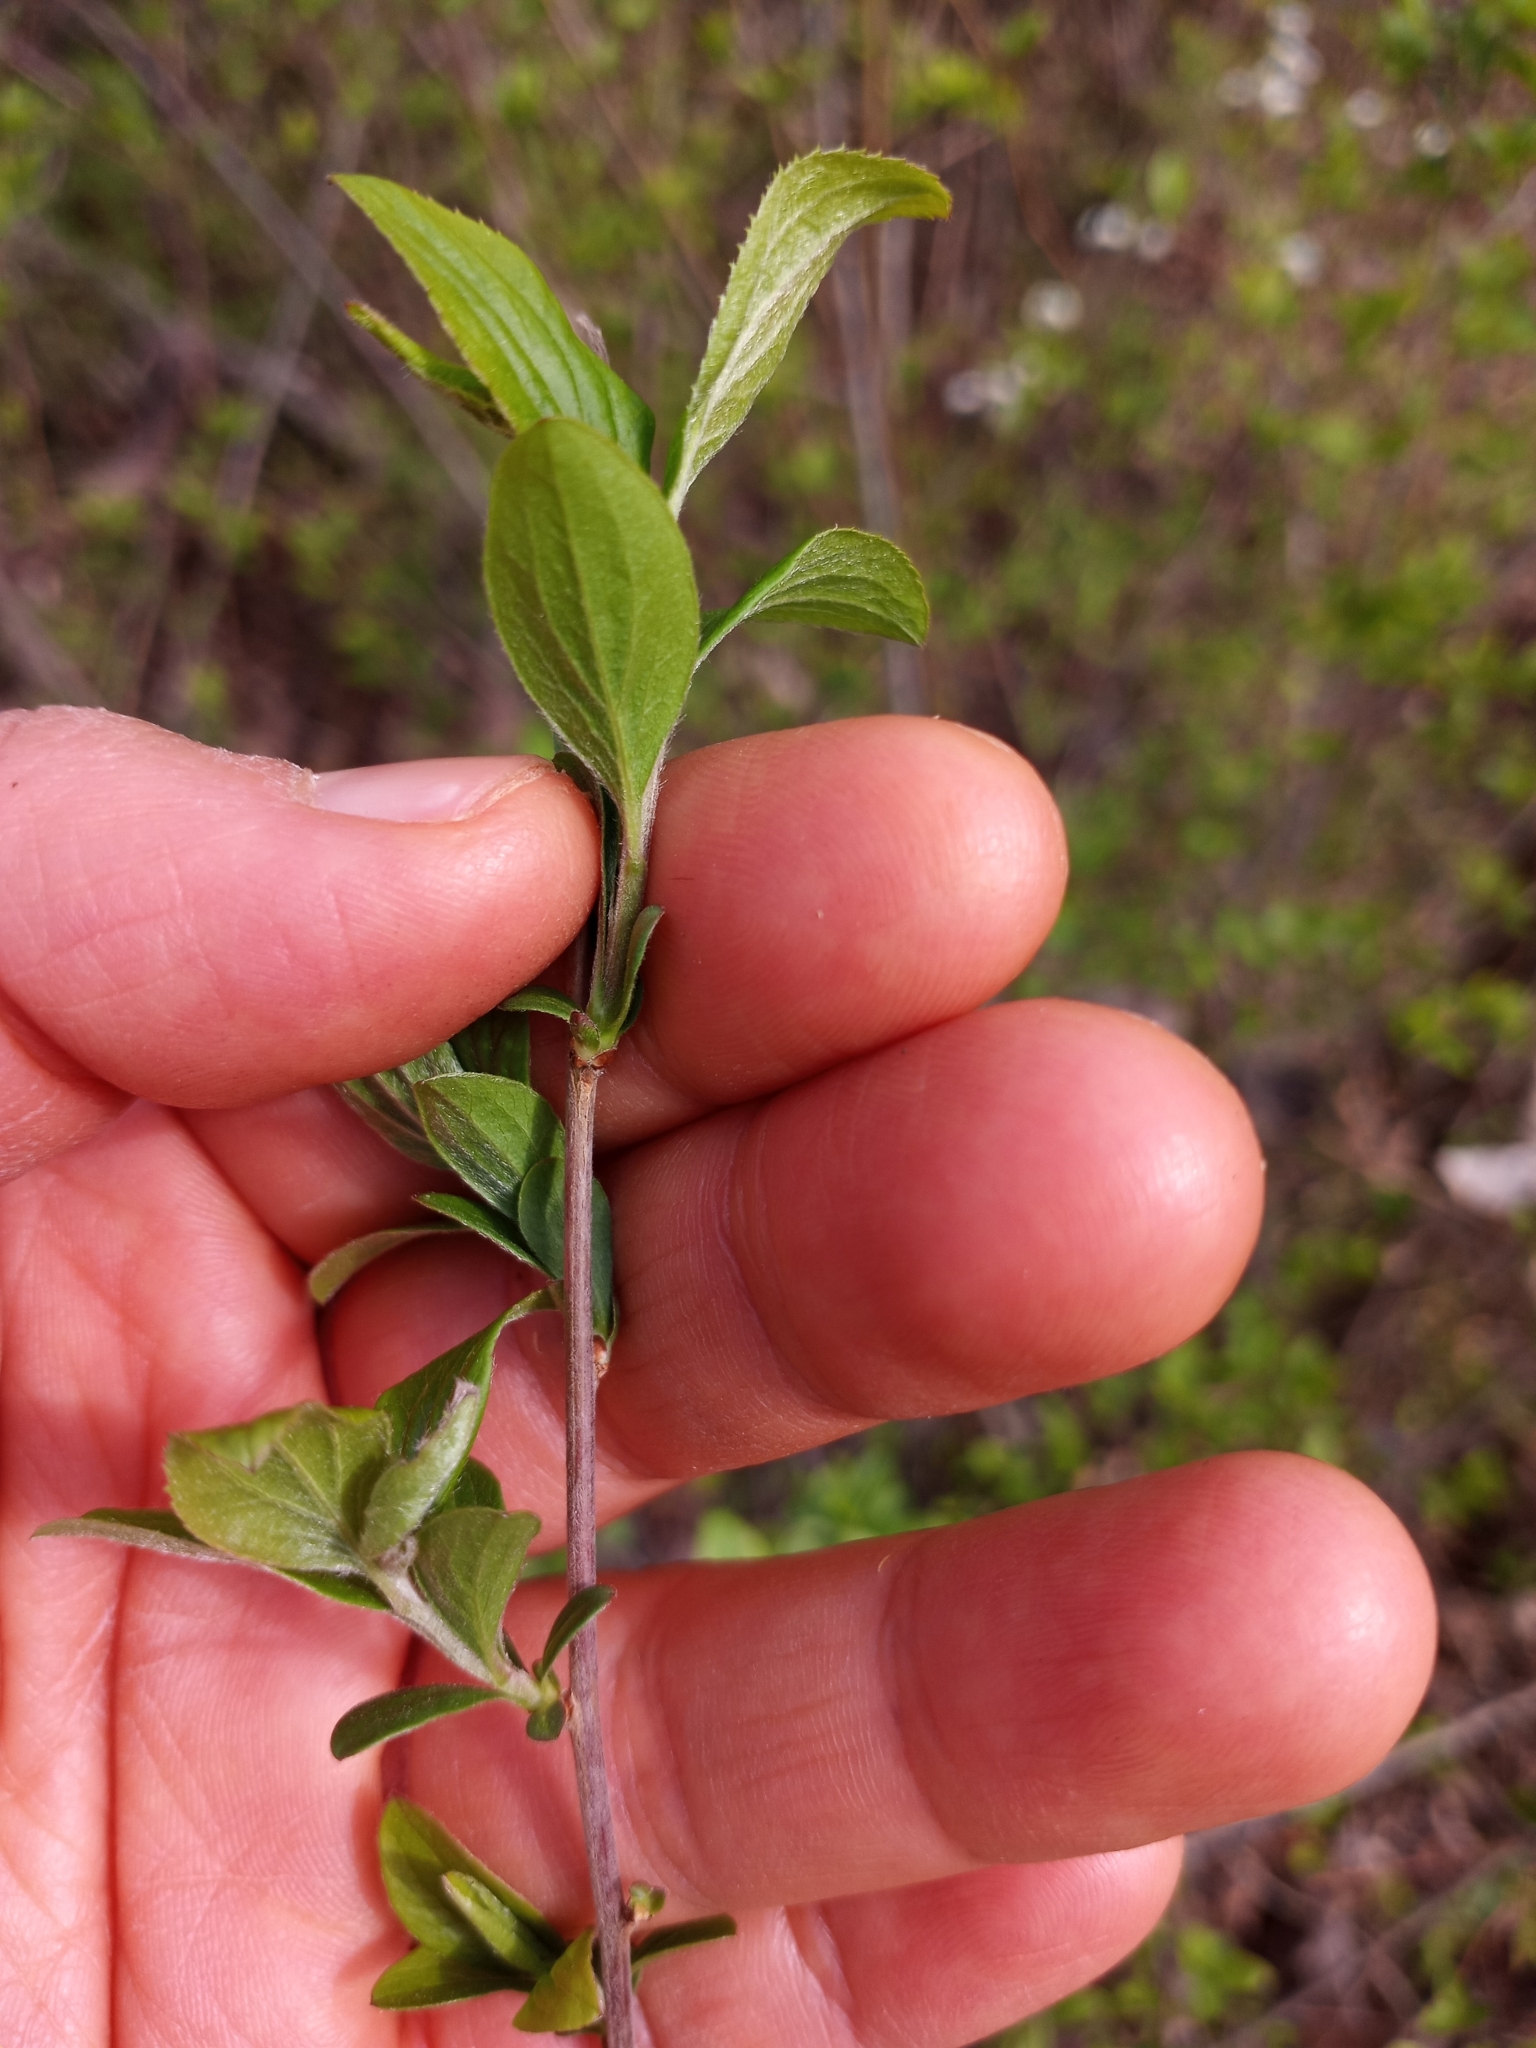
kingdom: Plantae
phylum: Tracheophyta
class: Magnoliopsida
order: Rosales
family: Rosaceae
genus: Spiraea
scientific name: Spiraea prunifolia
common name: Bridal-wreath spiraea
